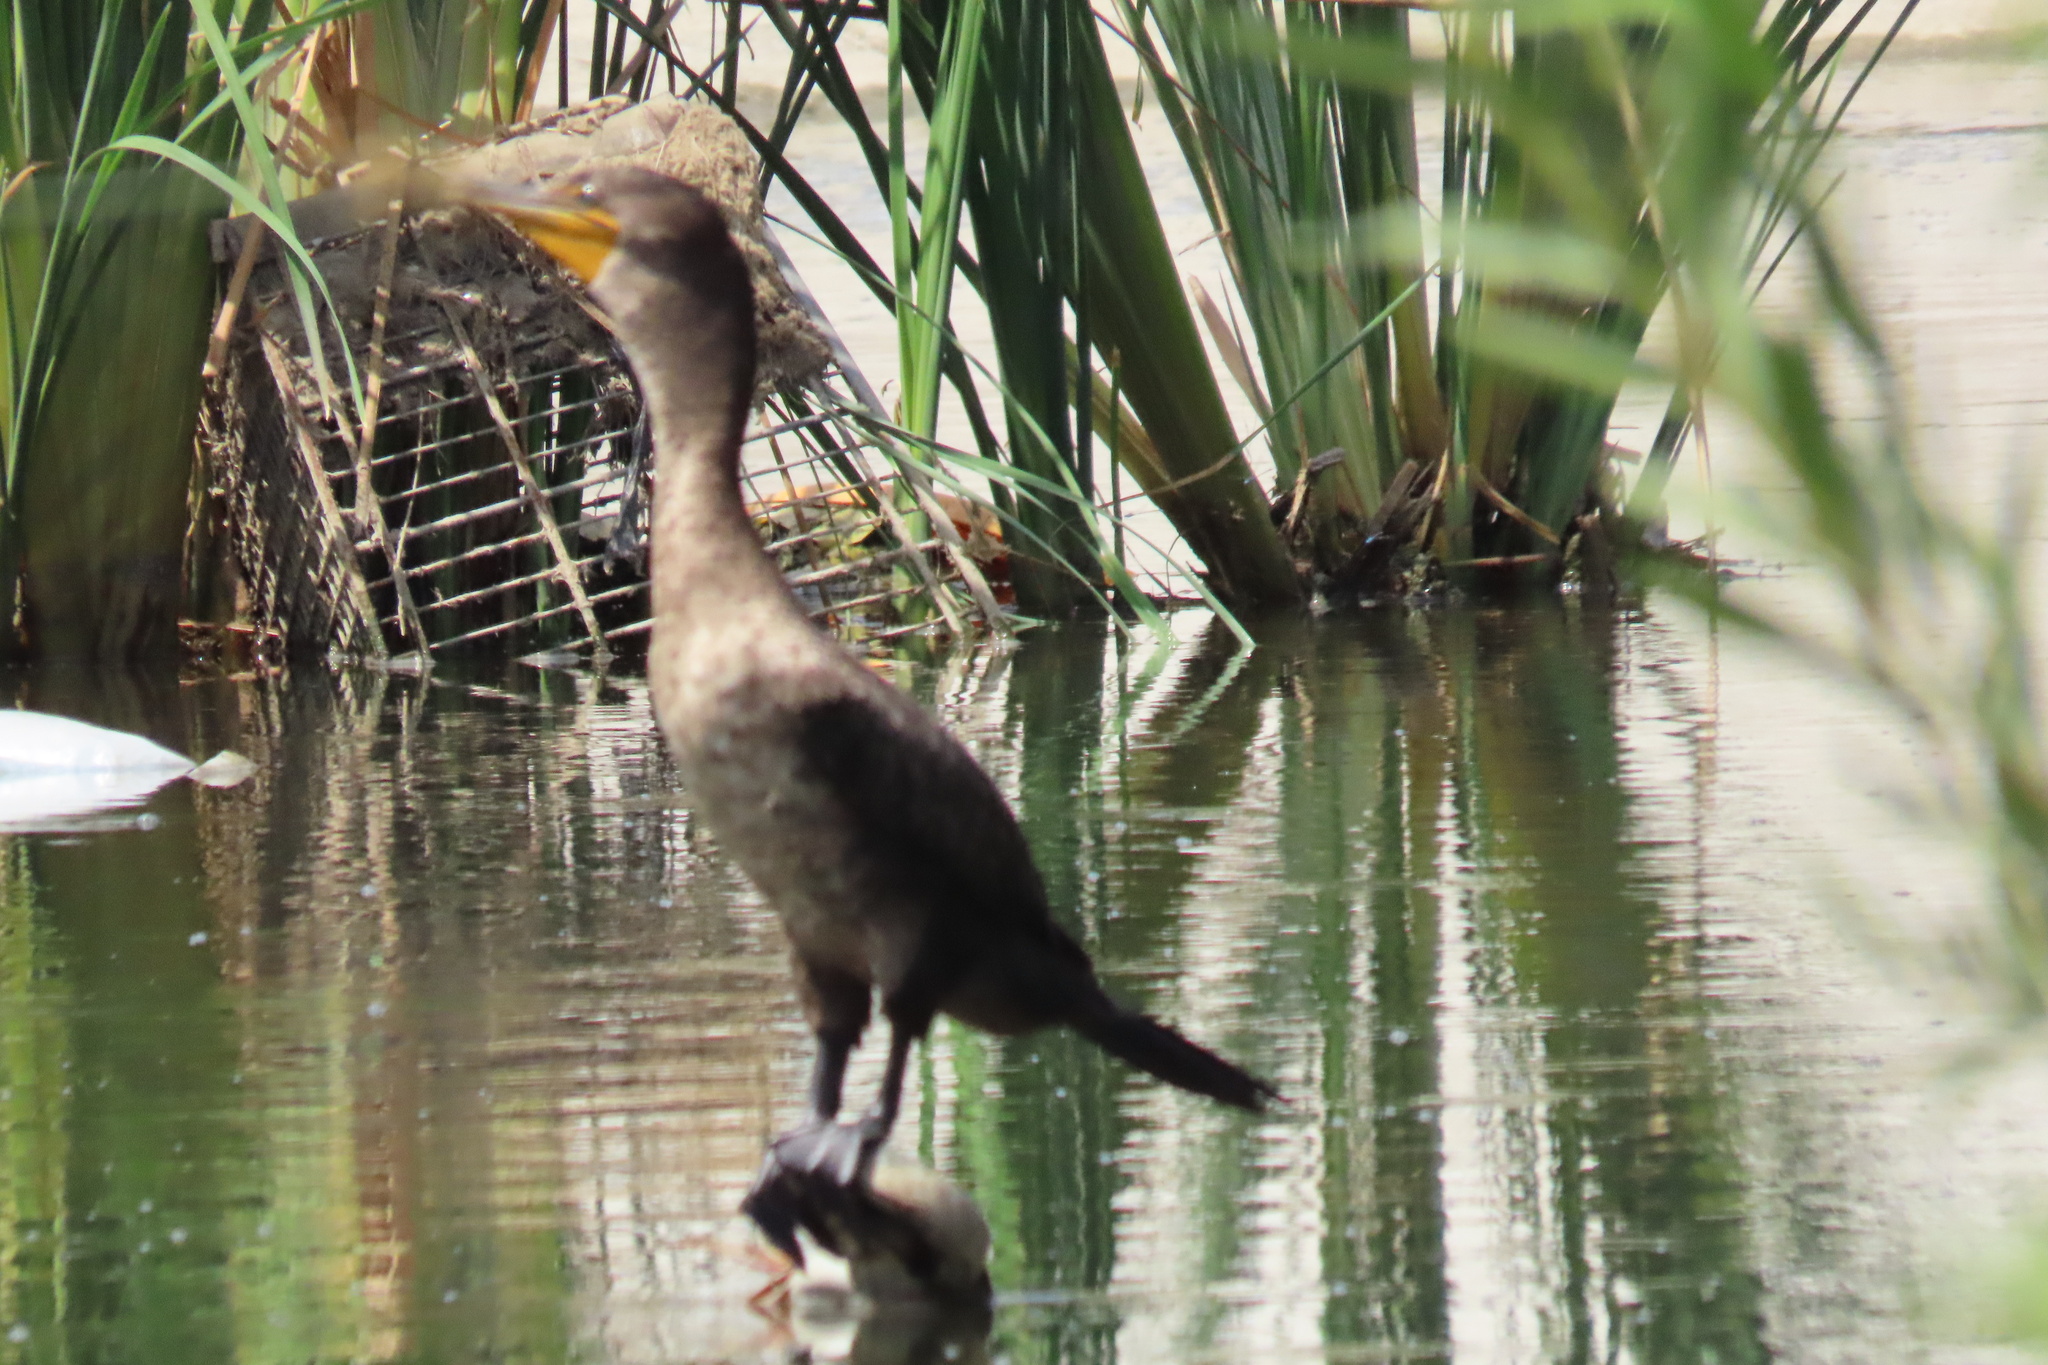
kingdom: Animalia
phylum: Chordata
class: Aves
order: Suliformes
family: Phalacrocoracidae
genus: Phalacrocorax
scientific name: Phalacrocorax auritus
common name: Double-crested cormorant
